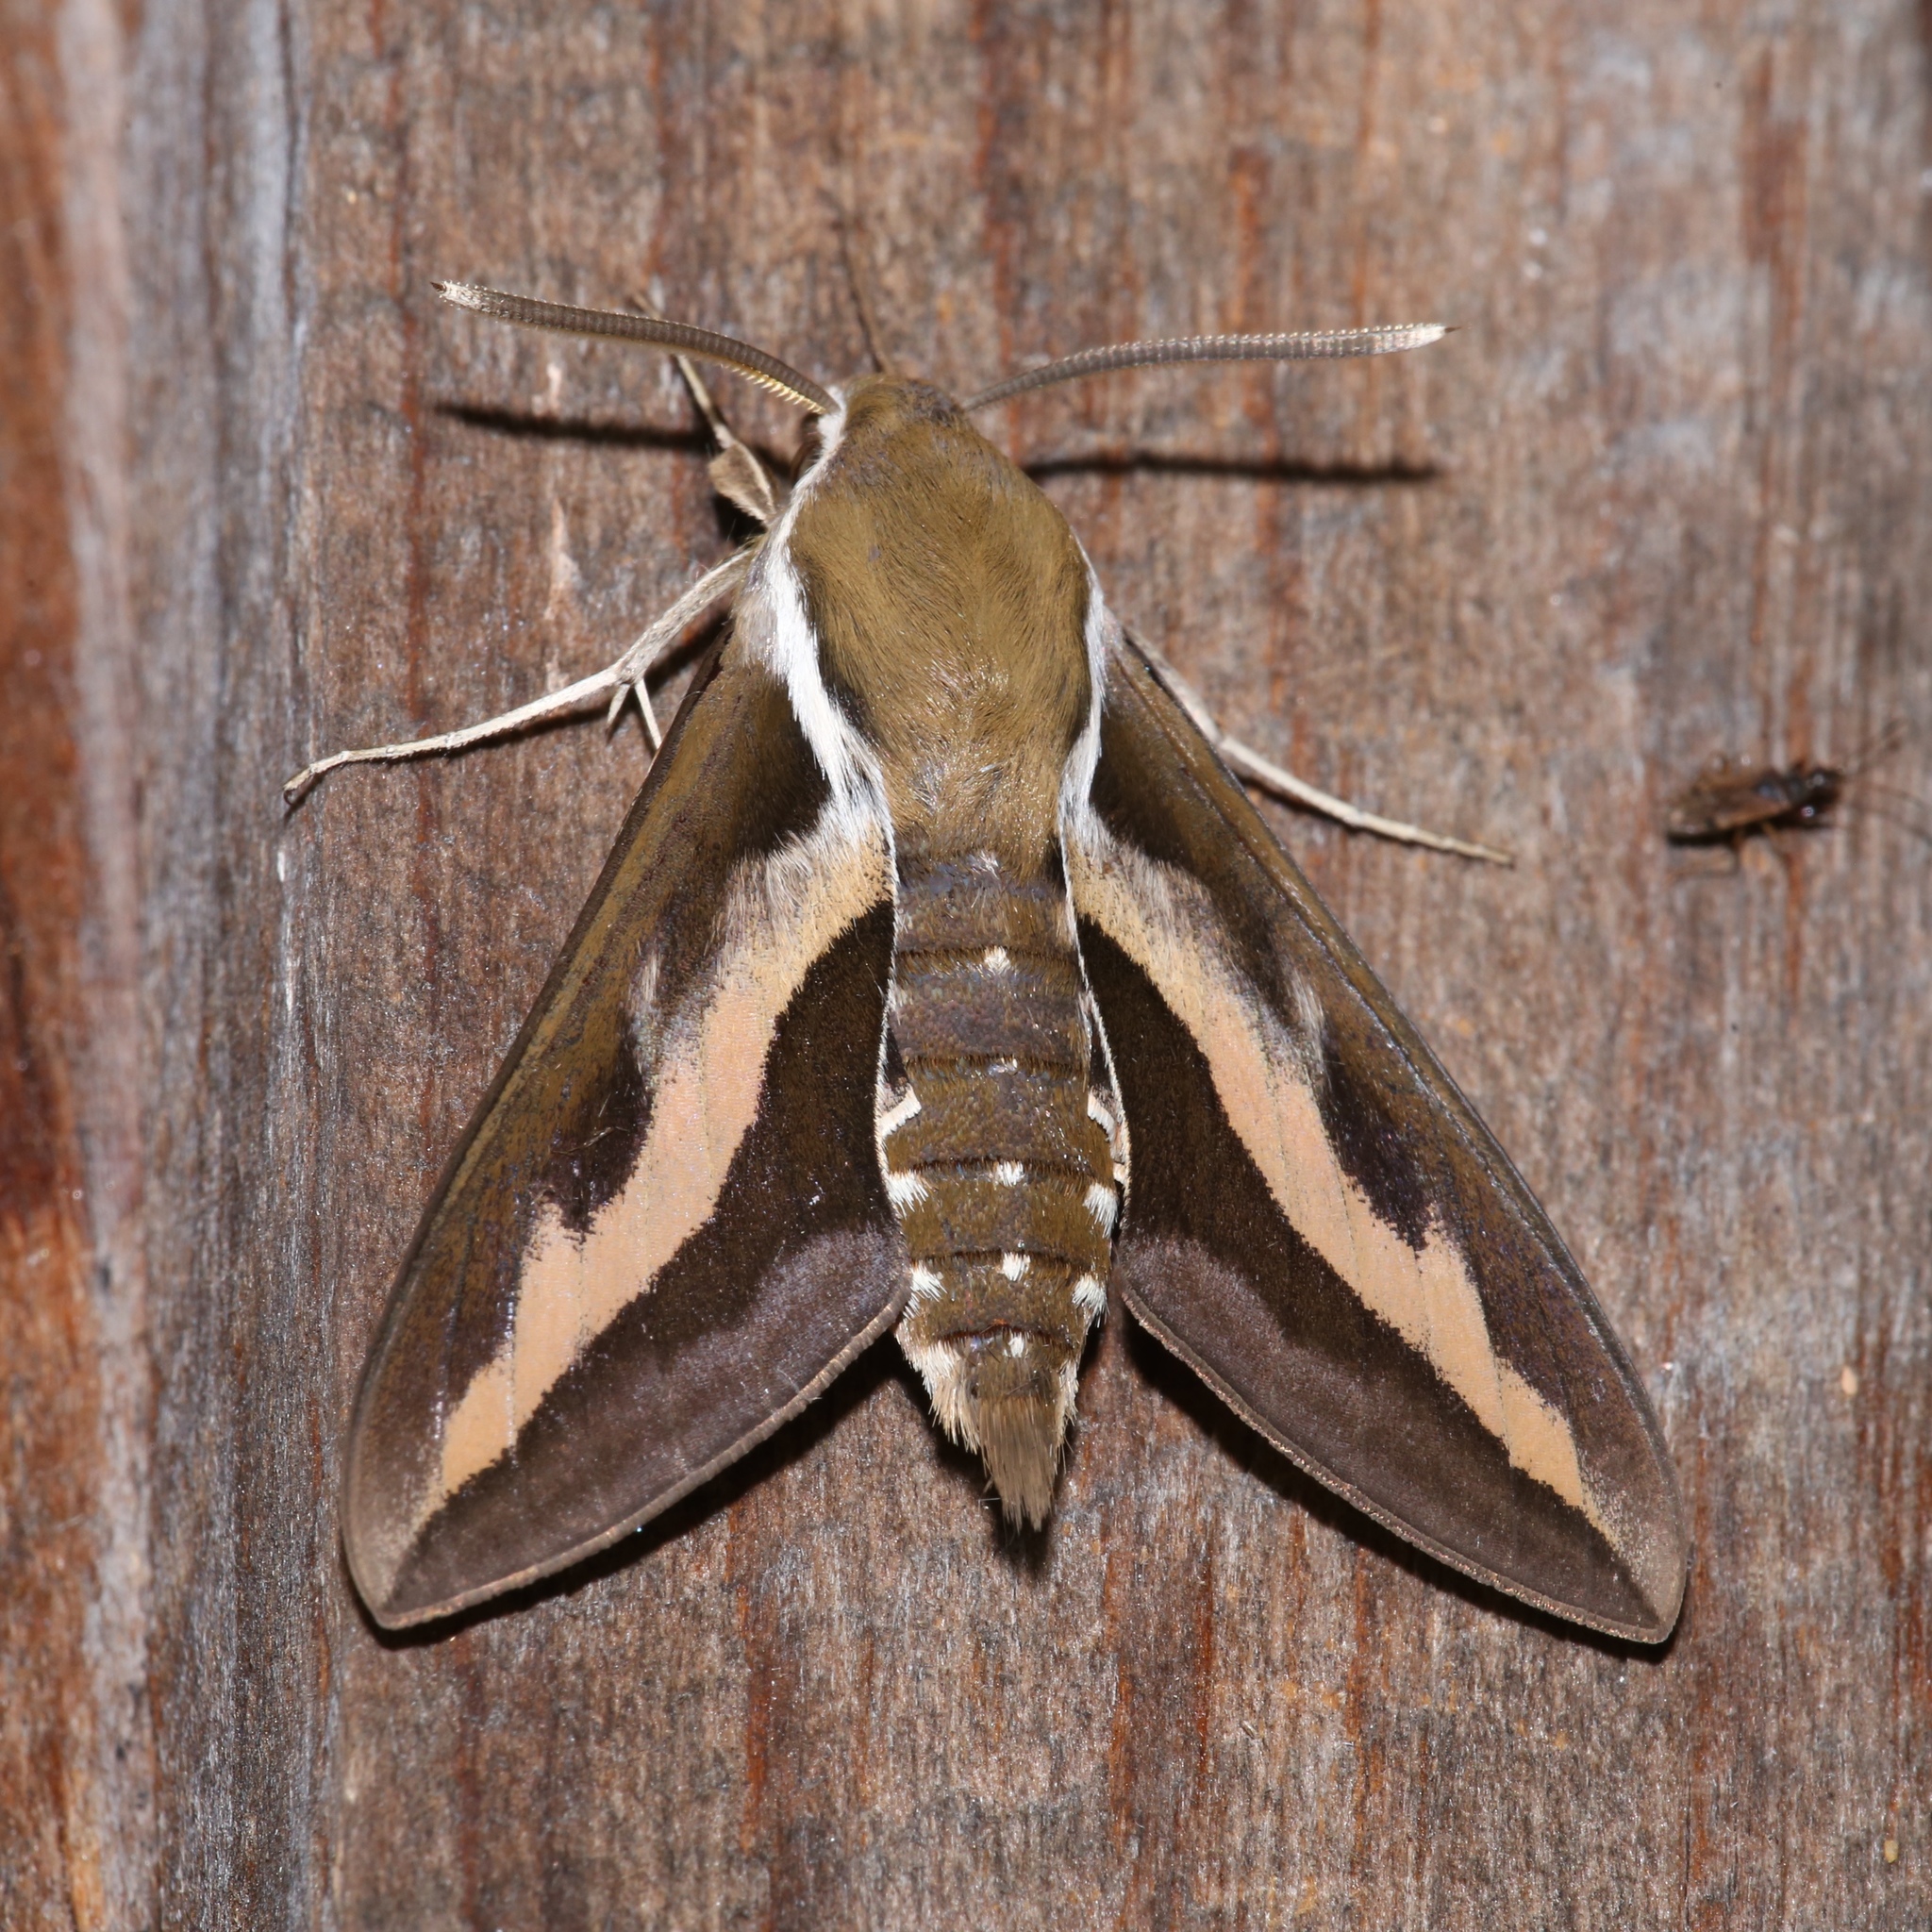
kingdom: Animalia
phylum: Arthropoda
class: Insecta
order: Lepidoptera
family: Sphingidae
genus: Hyles
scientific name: Hyles gallii
